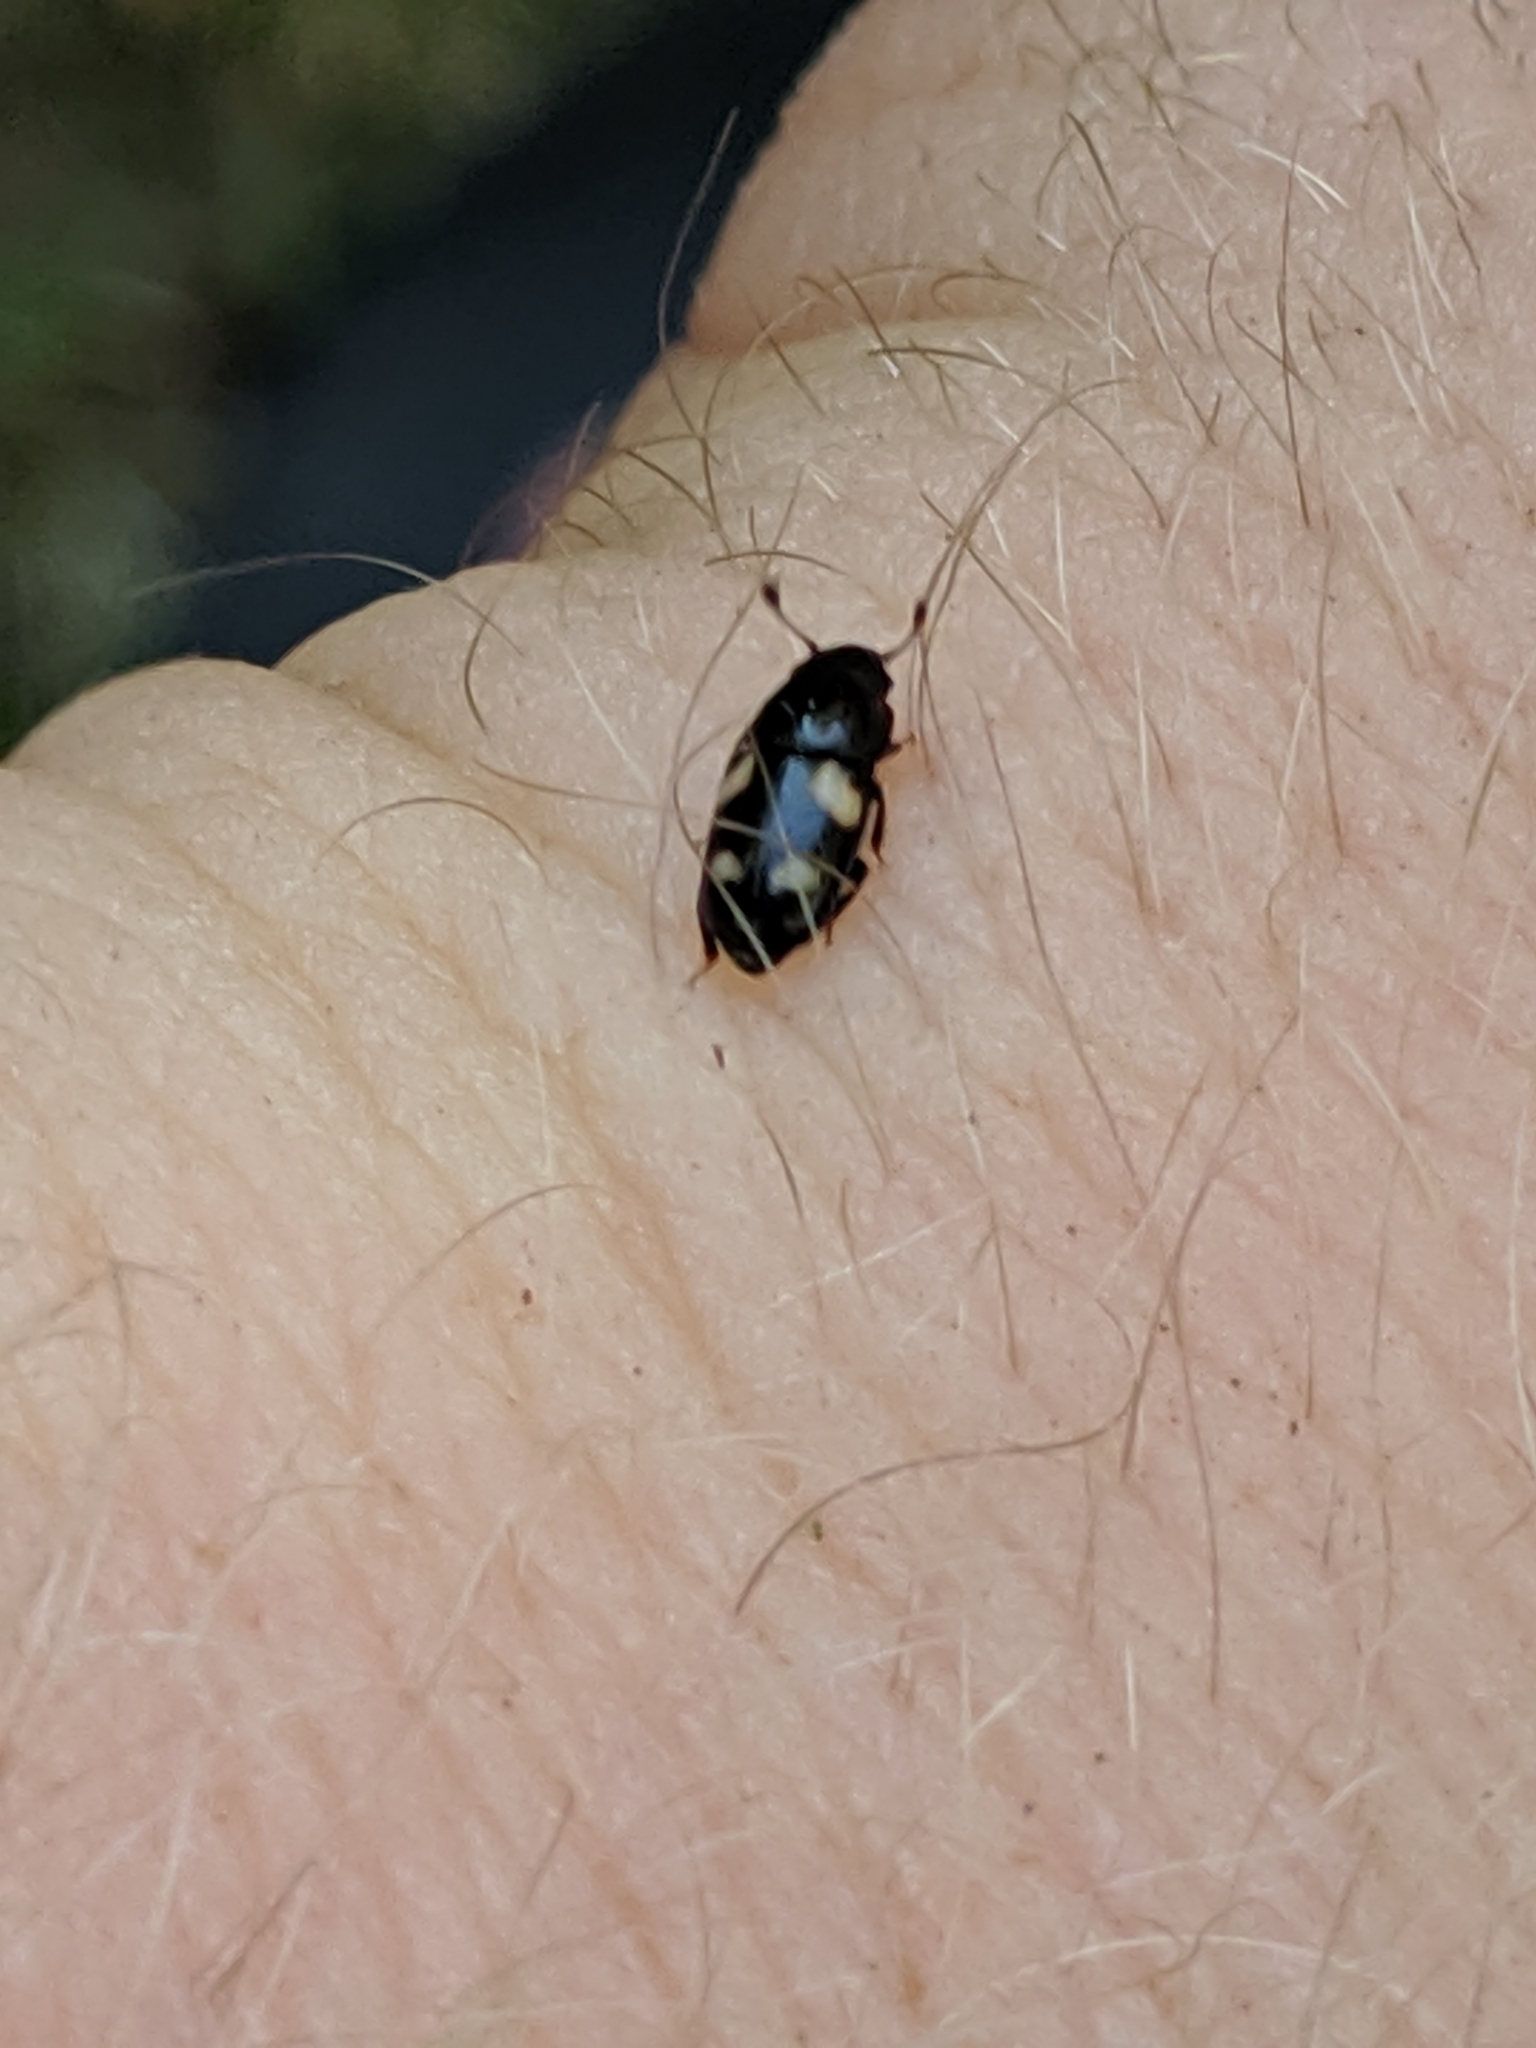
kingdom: Animalia
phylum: Arthropoda
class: Insecta
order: Coleoptera
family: Nitidulidae
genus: Glischrochilus
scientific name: Glischrochilus quadrisignatus
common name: Picnic beetle
